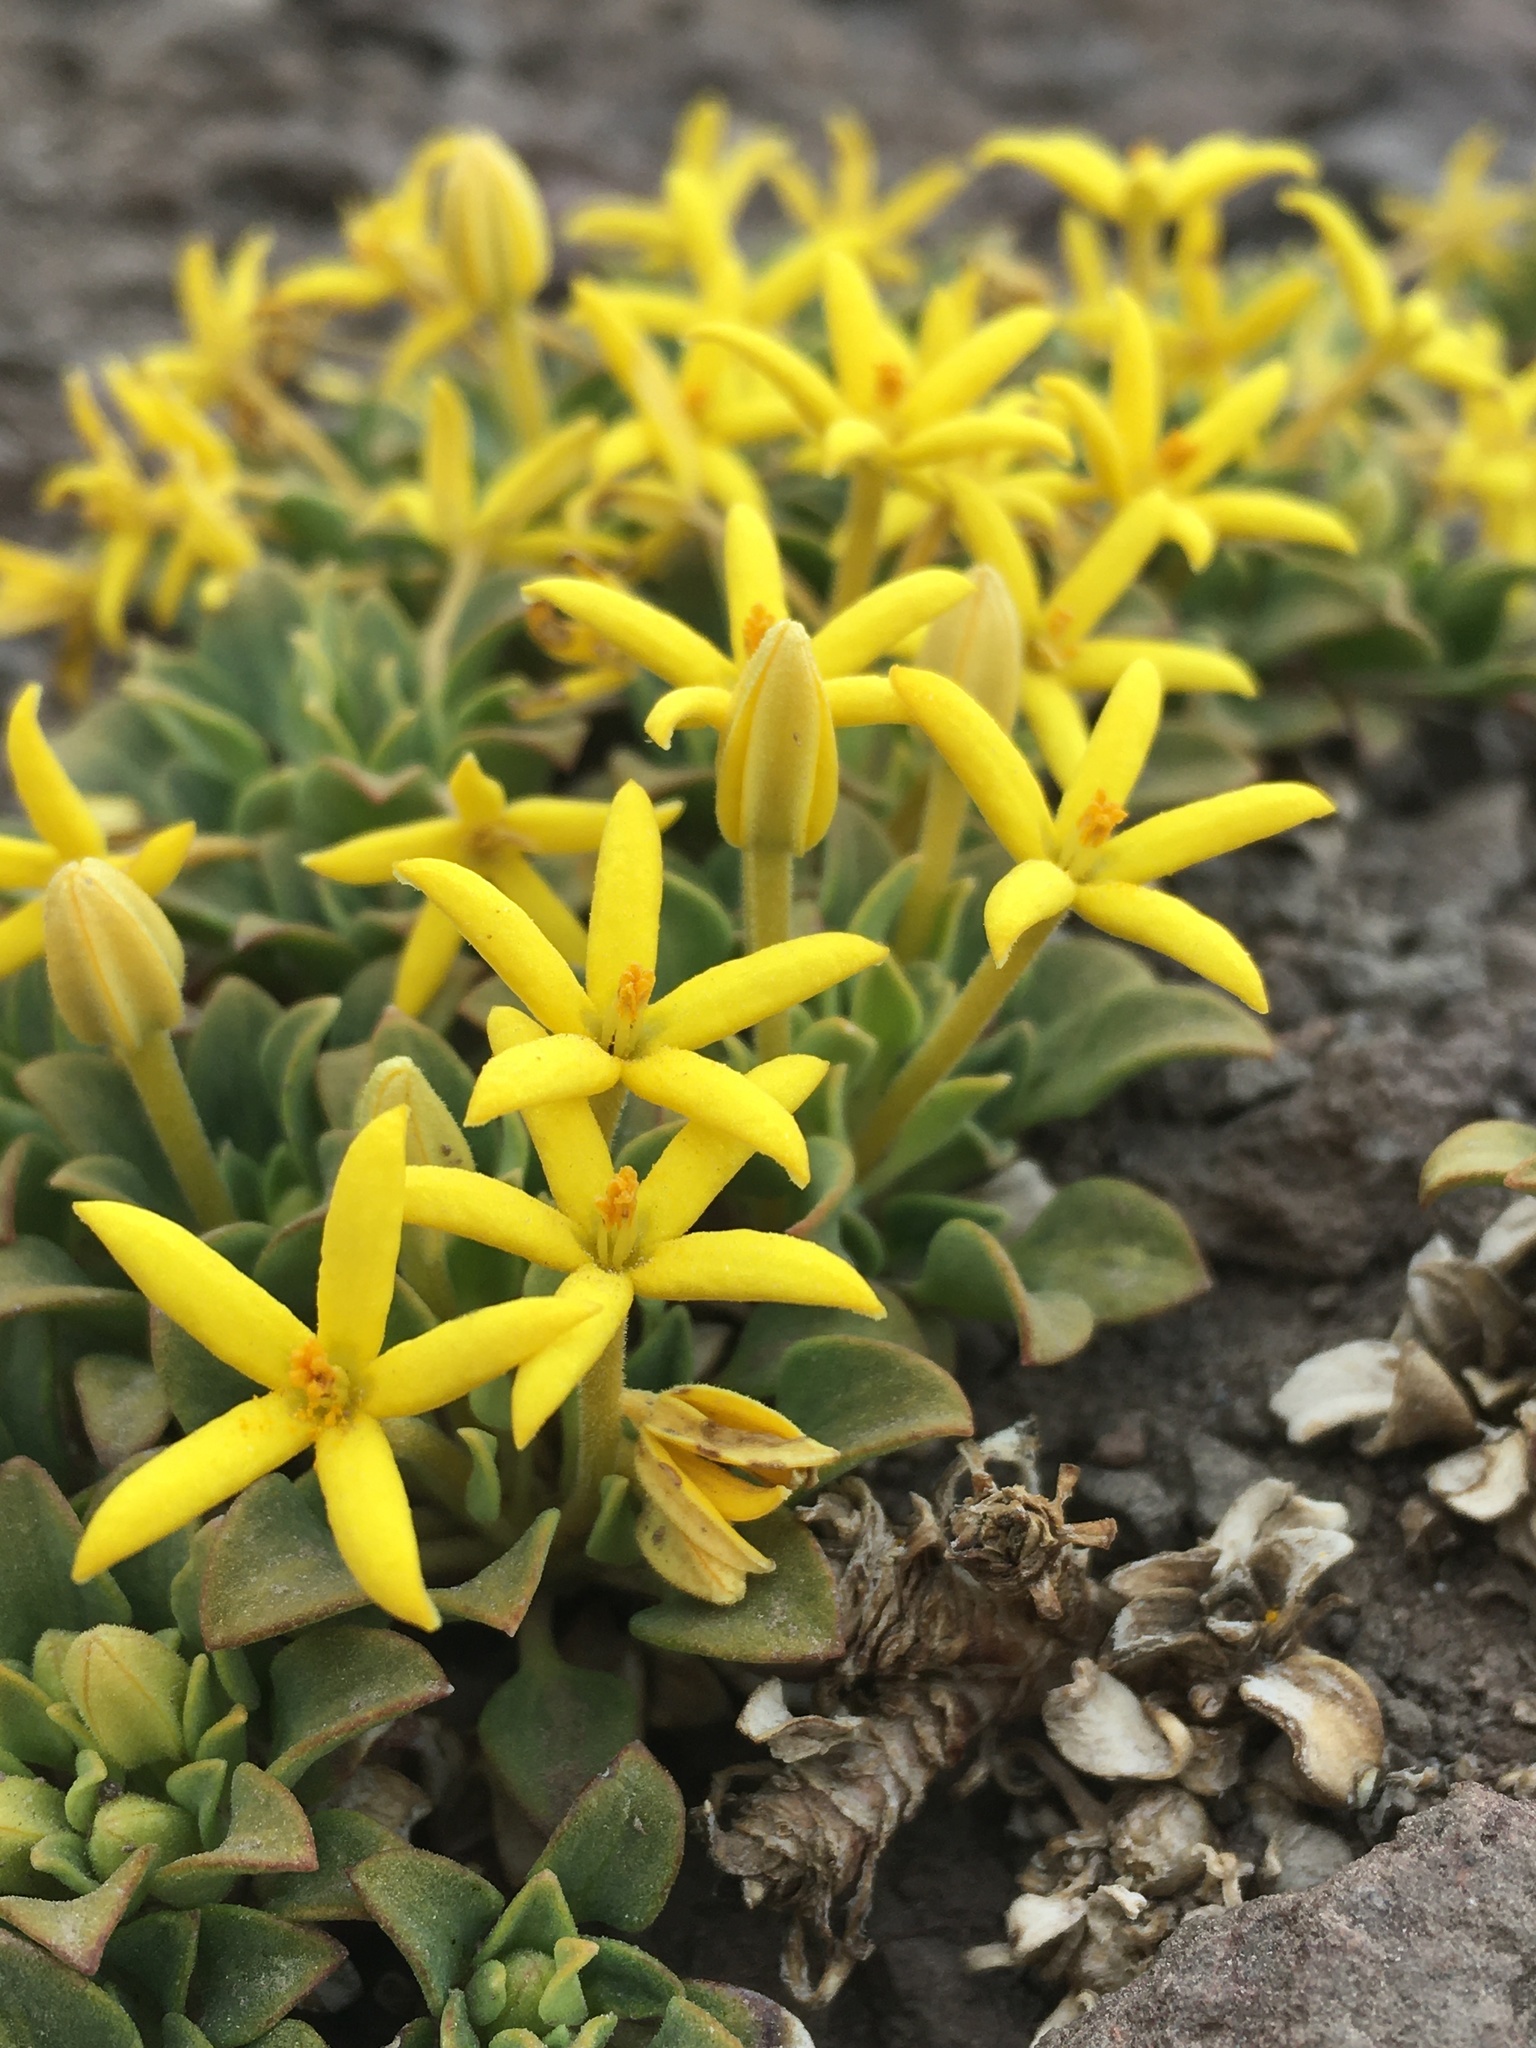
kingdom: Plantae
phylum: Tracheophyta
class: Magnoliopsida
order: Gentianales
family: Rubiaceae
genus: Oreopolus
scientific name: Oreopolus glacialis
